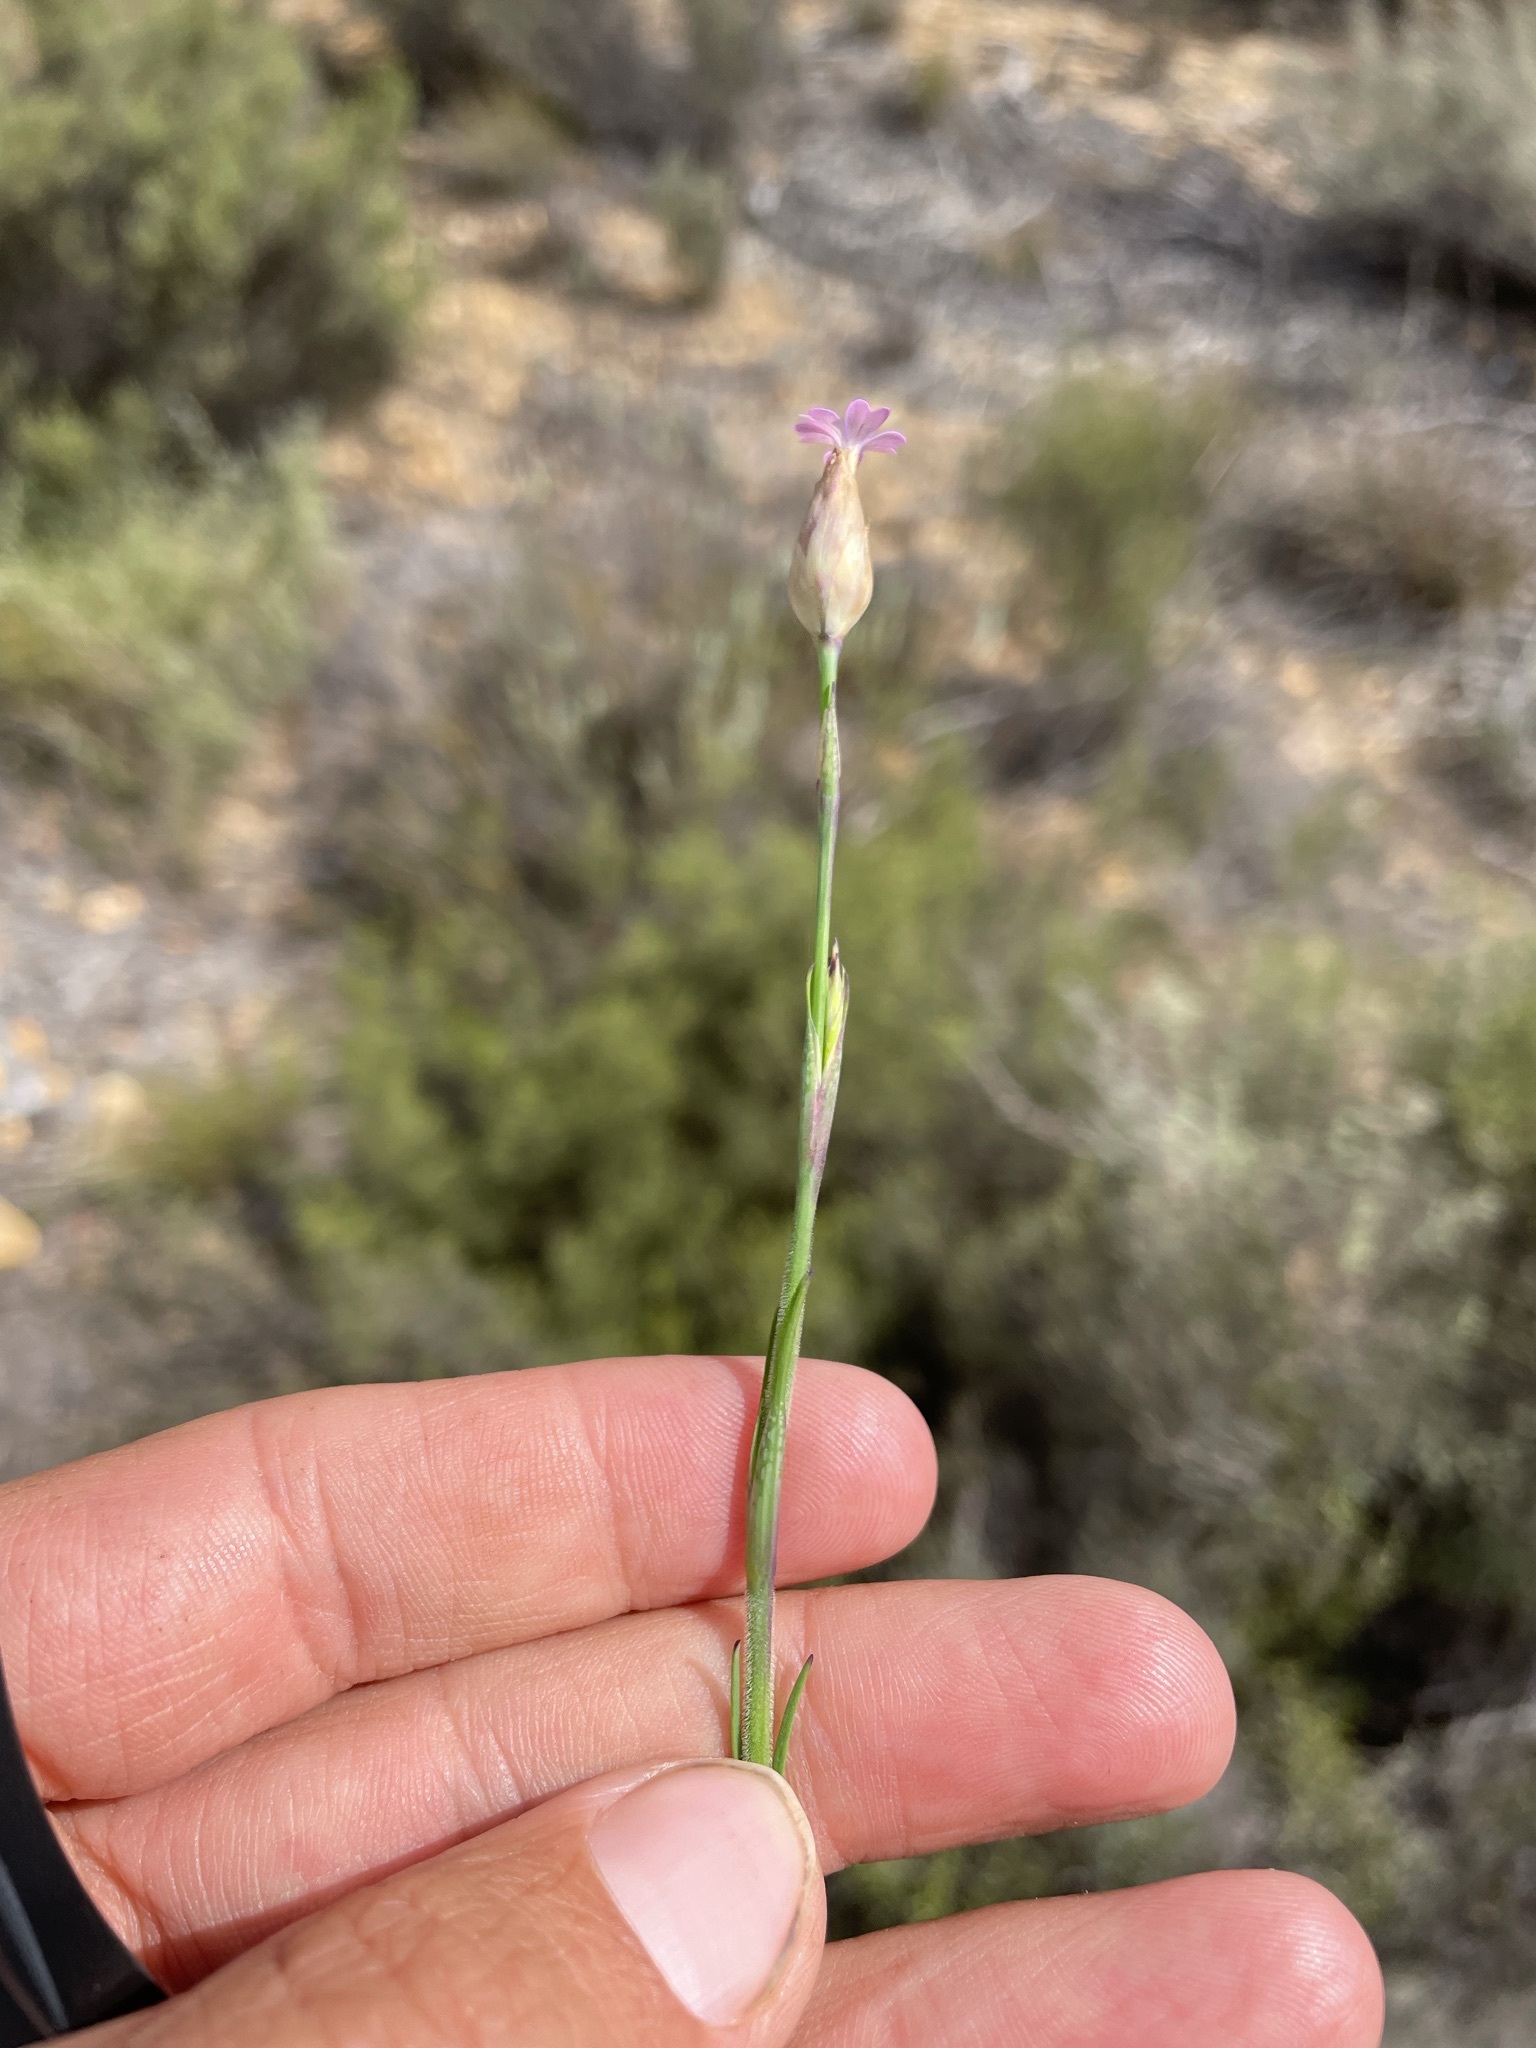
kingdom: Plantae
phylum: Tracheophyta
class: Magnoliopsida
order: Caryophyllales
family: Caryophyllaceae
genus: Petrorhagia
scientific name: Petrorhagia dubia
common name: Hairypink
